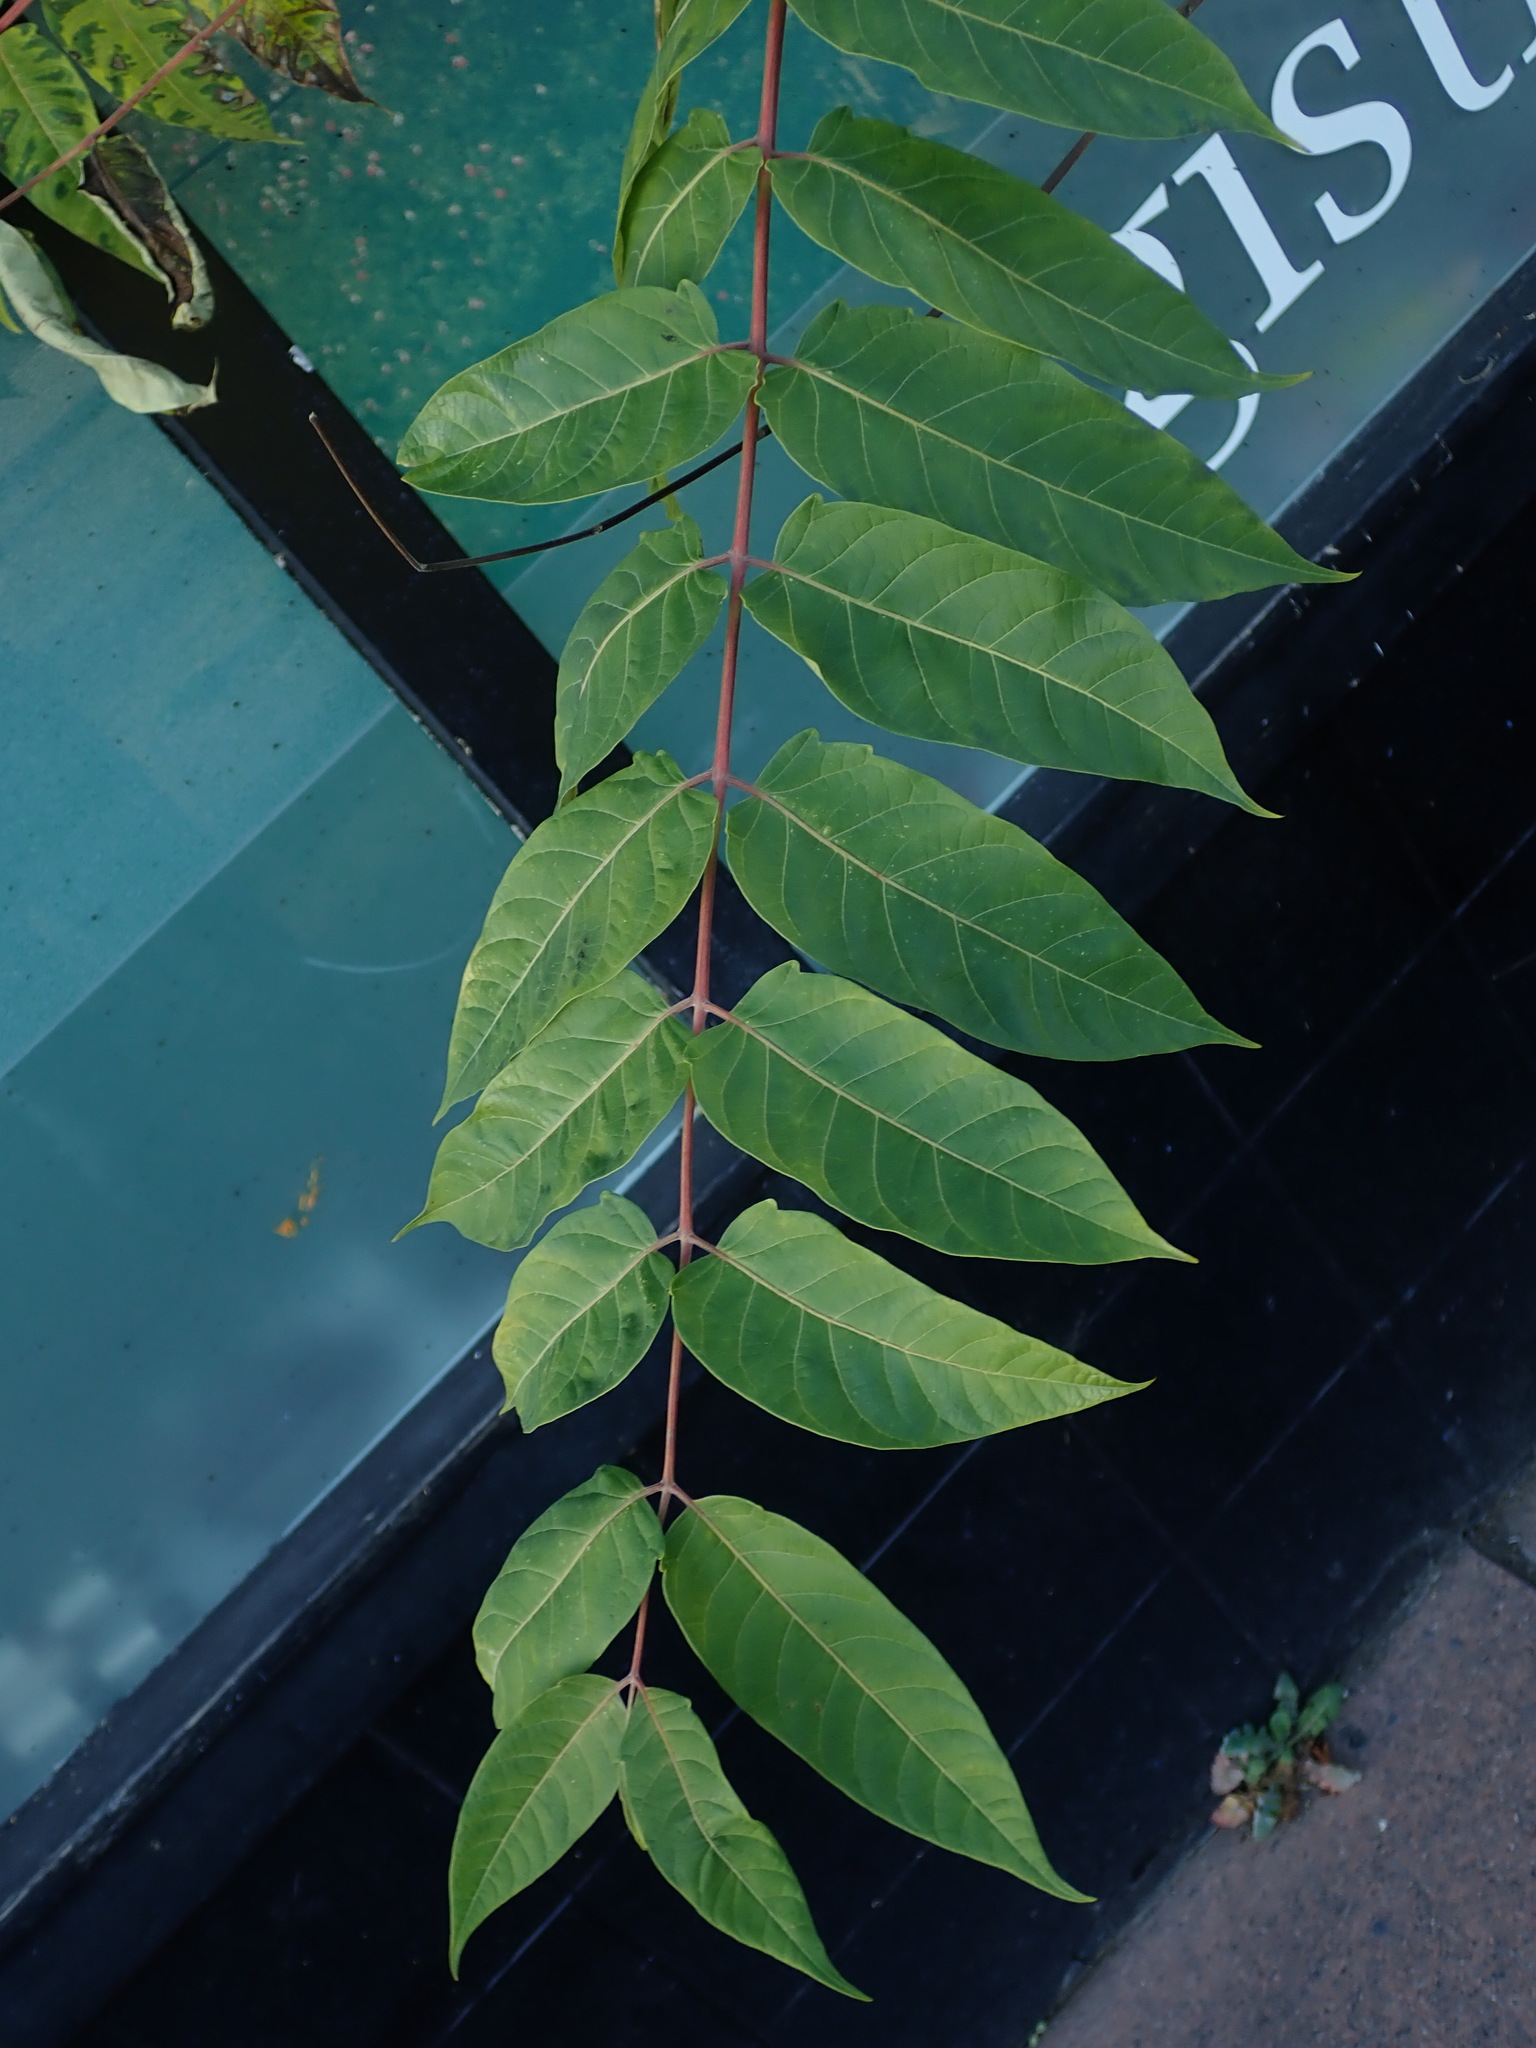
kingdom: Plantae
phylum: Tracheophyta
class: Magnoliopsida
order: Sapindales
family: Simaroubaceae
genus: Ailanthus
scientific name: Ailanthus altissima
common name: Tree-of-heaven
